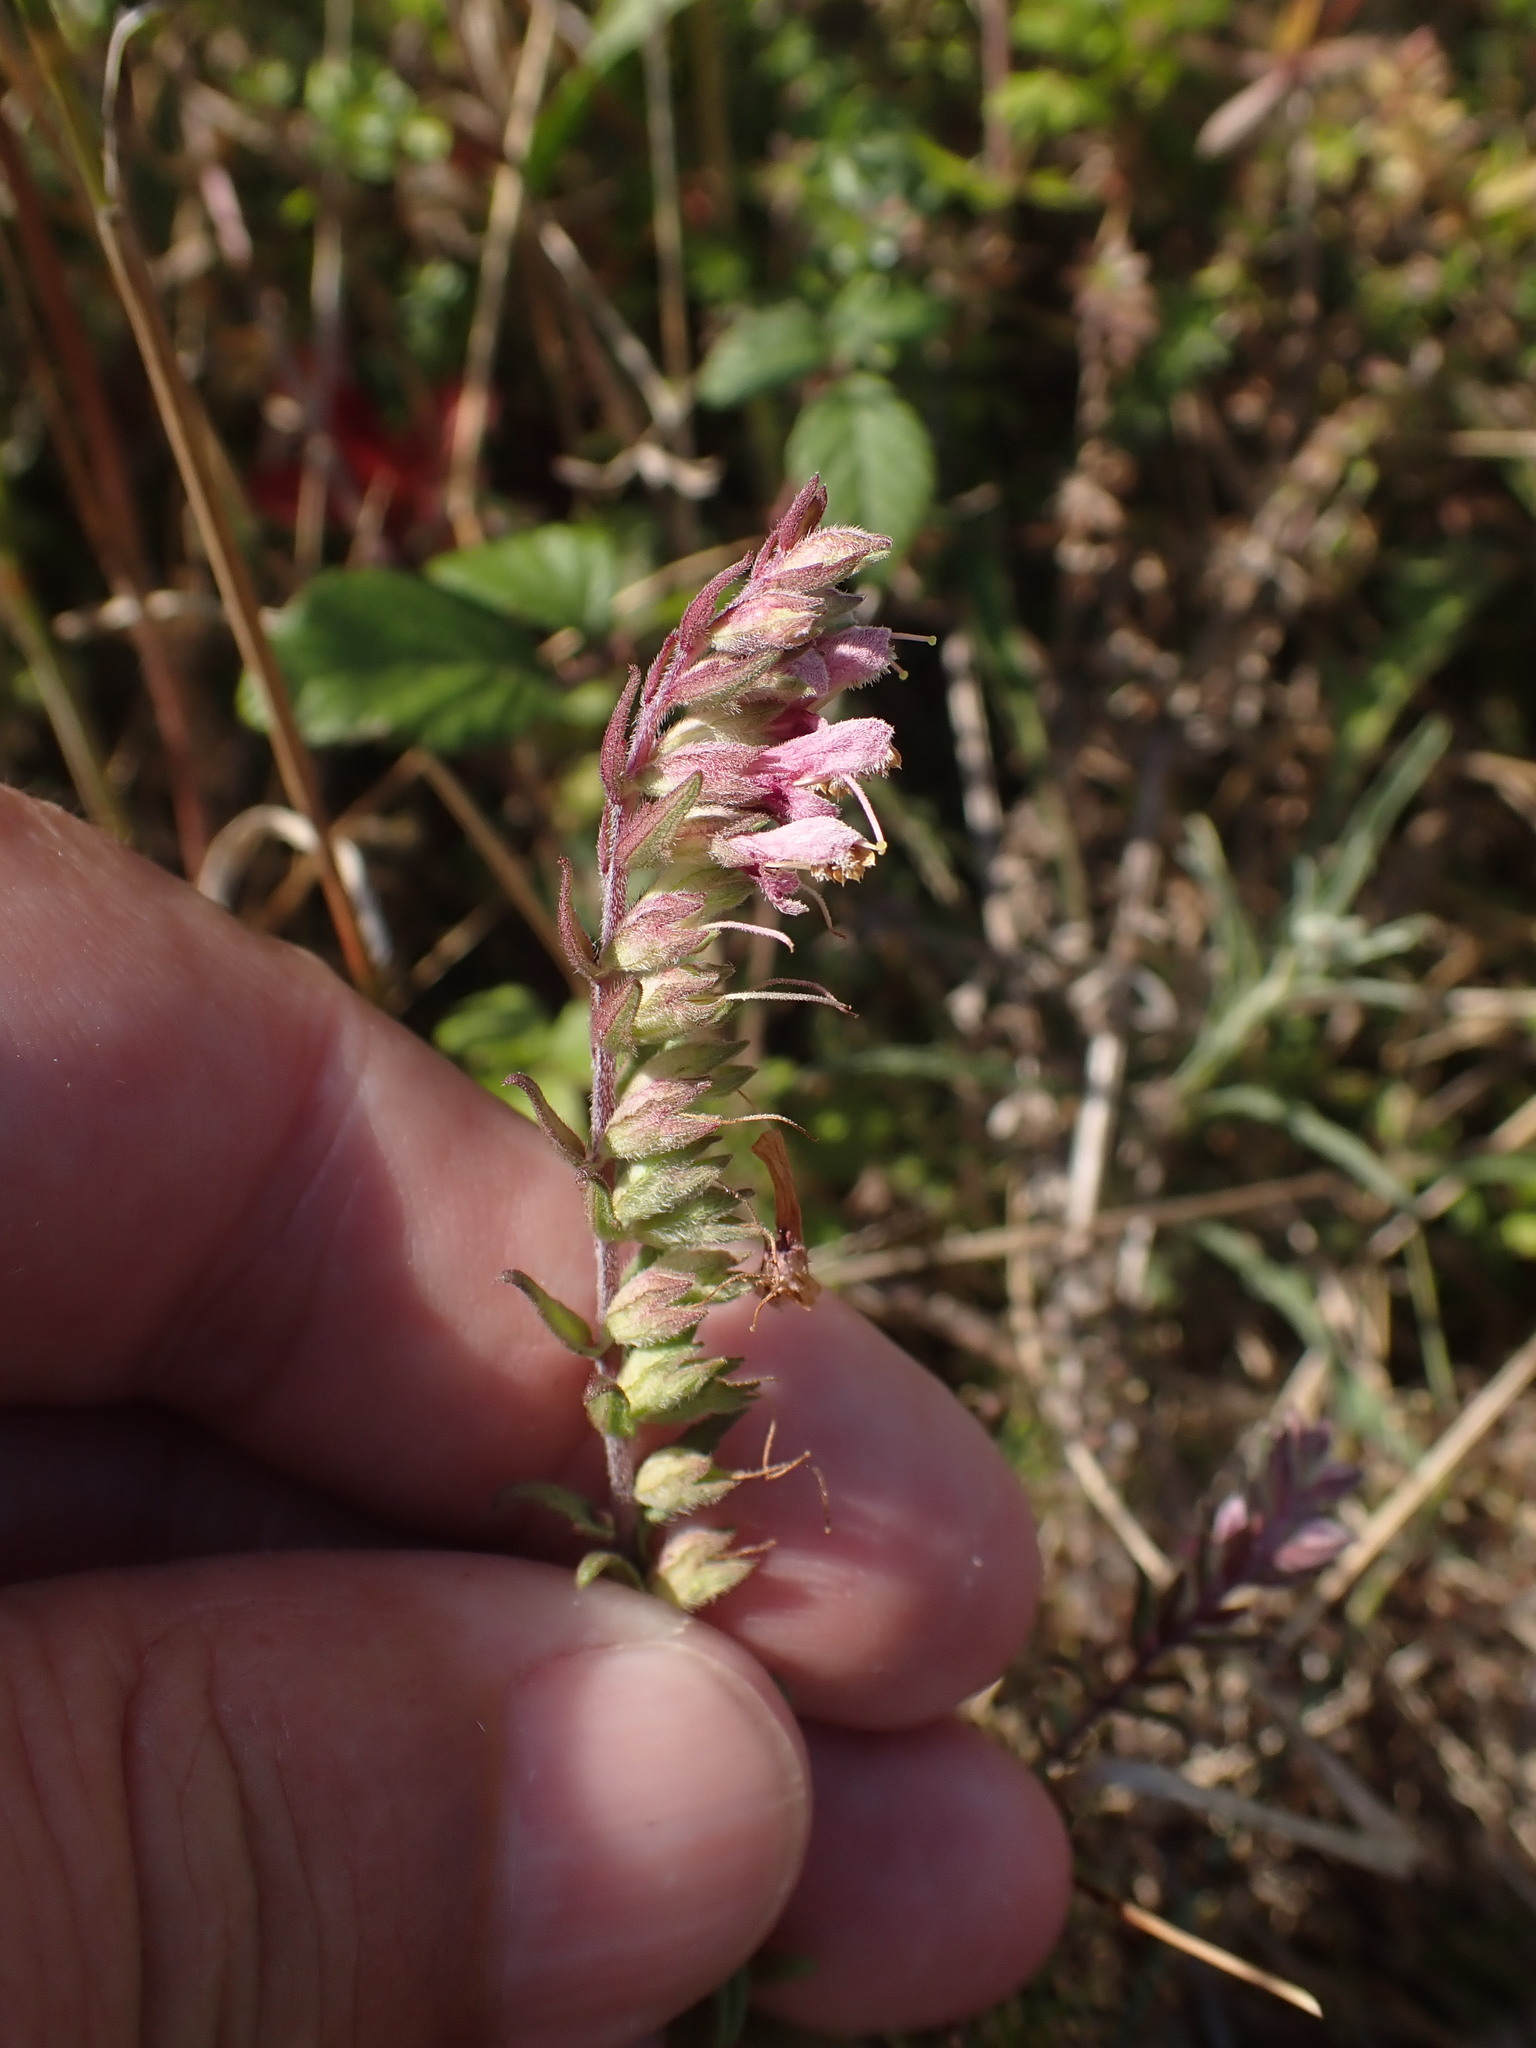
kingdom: Plantae
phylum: Tracheophyta
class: Magnoliopsida
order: Lamiales
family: Orobanchaceae
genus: Odontites
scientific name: Odontites vulgaris
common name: Broomrape
